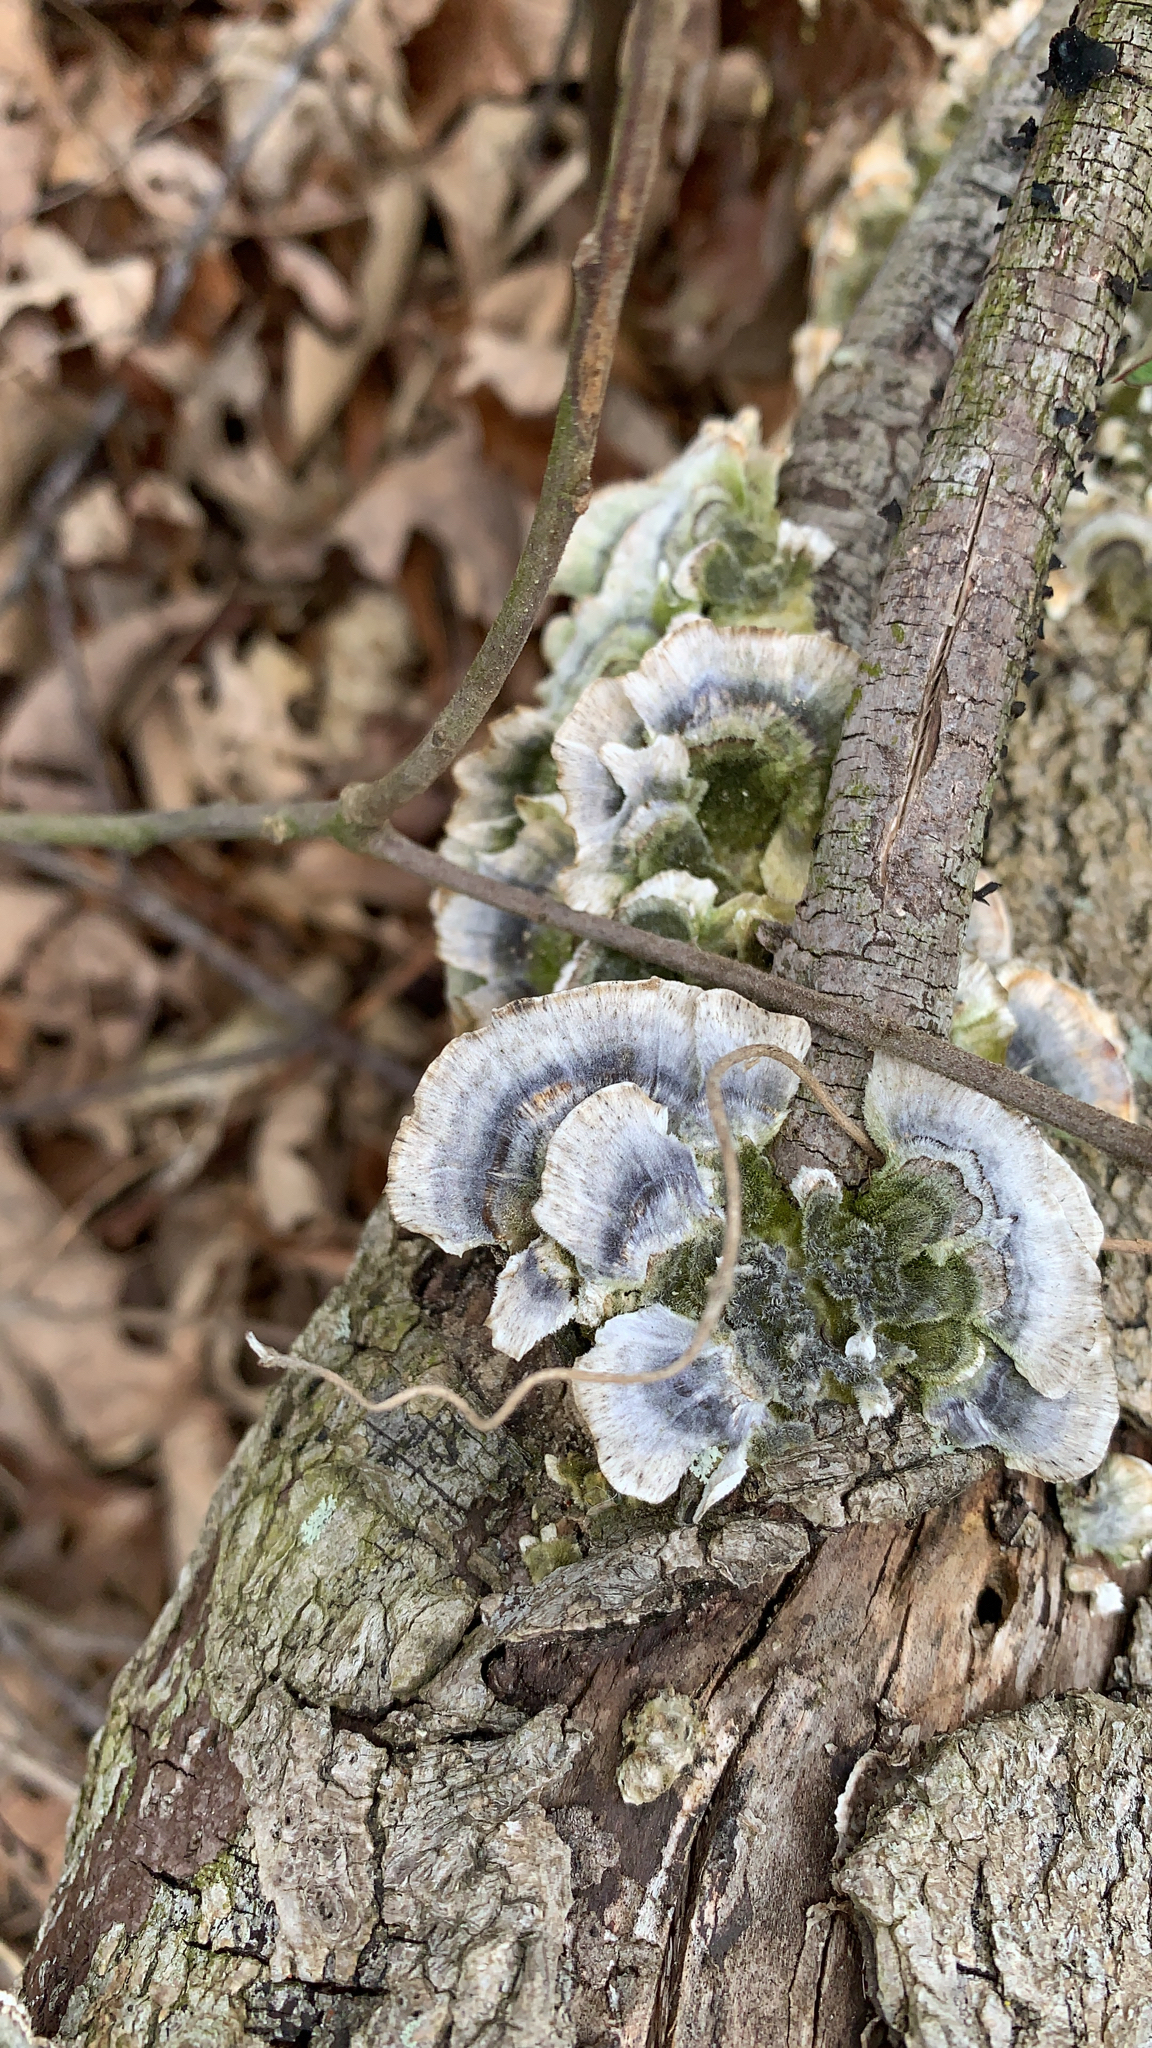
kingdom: Fungi
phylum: Basidiomycota
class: Agaricomycetes
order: Polyporales
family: Polyporaceae
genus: Trametes
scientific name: Trametes versicolor
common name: Turkeytail
